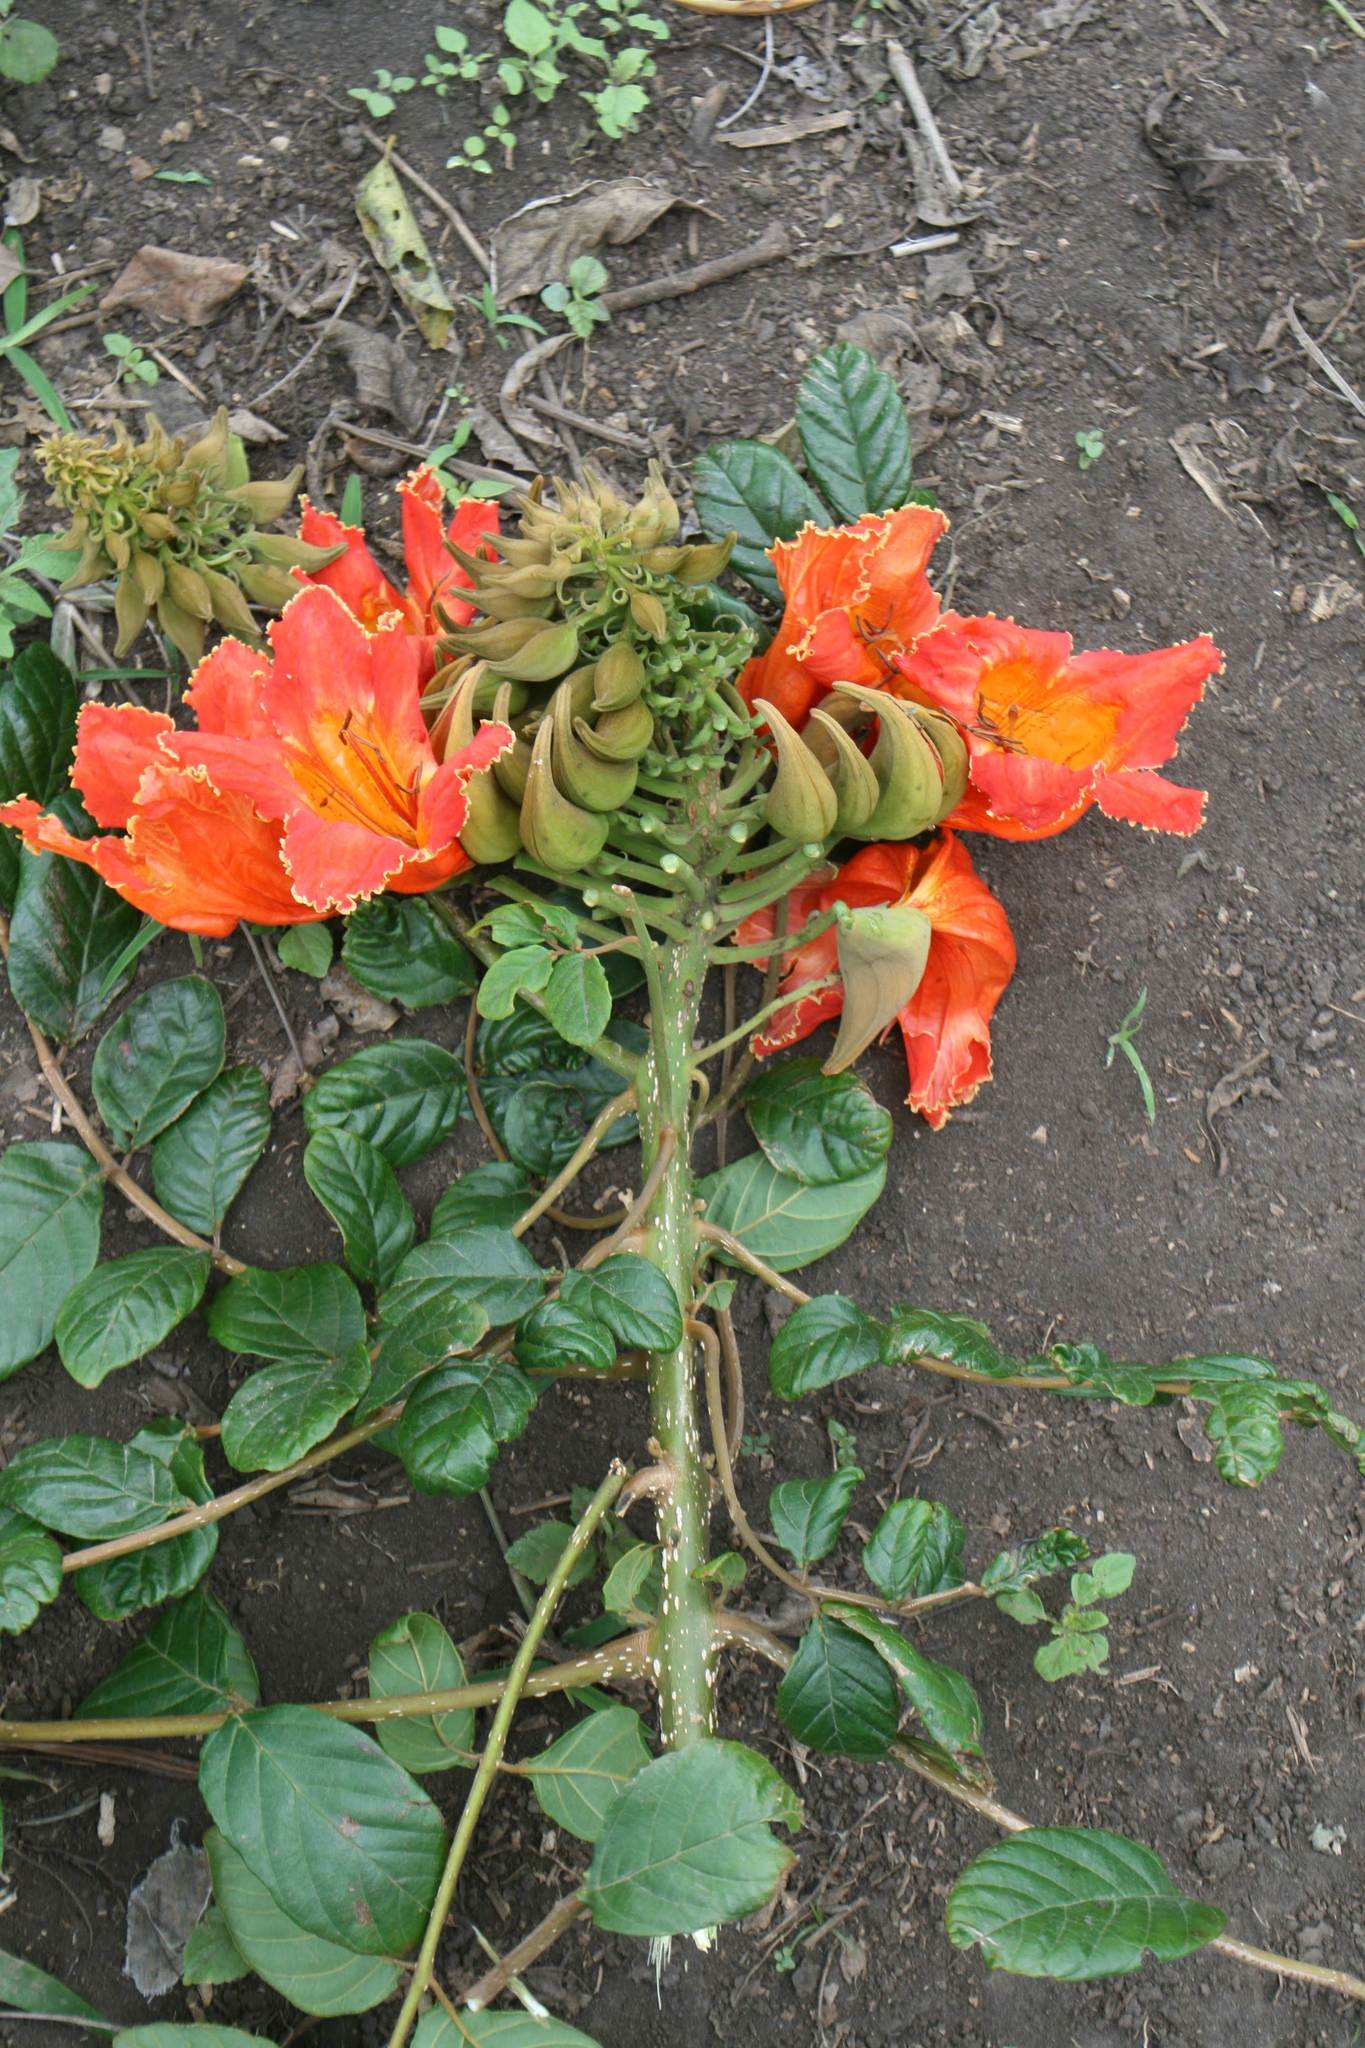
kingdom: Plantae
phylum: Tracheophyta
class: Magnoliopsida
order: Lamiales
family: Bignoniaceae
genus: Spathodea
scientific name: Spathodea campanulata
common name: African tuliptree
